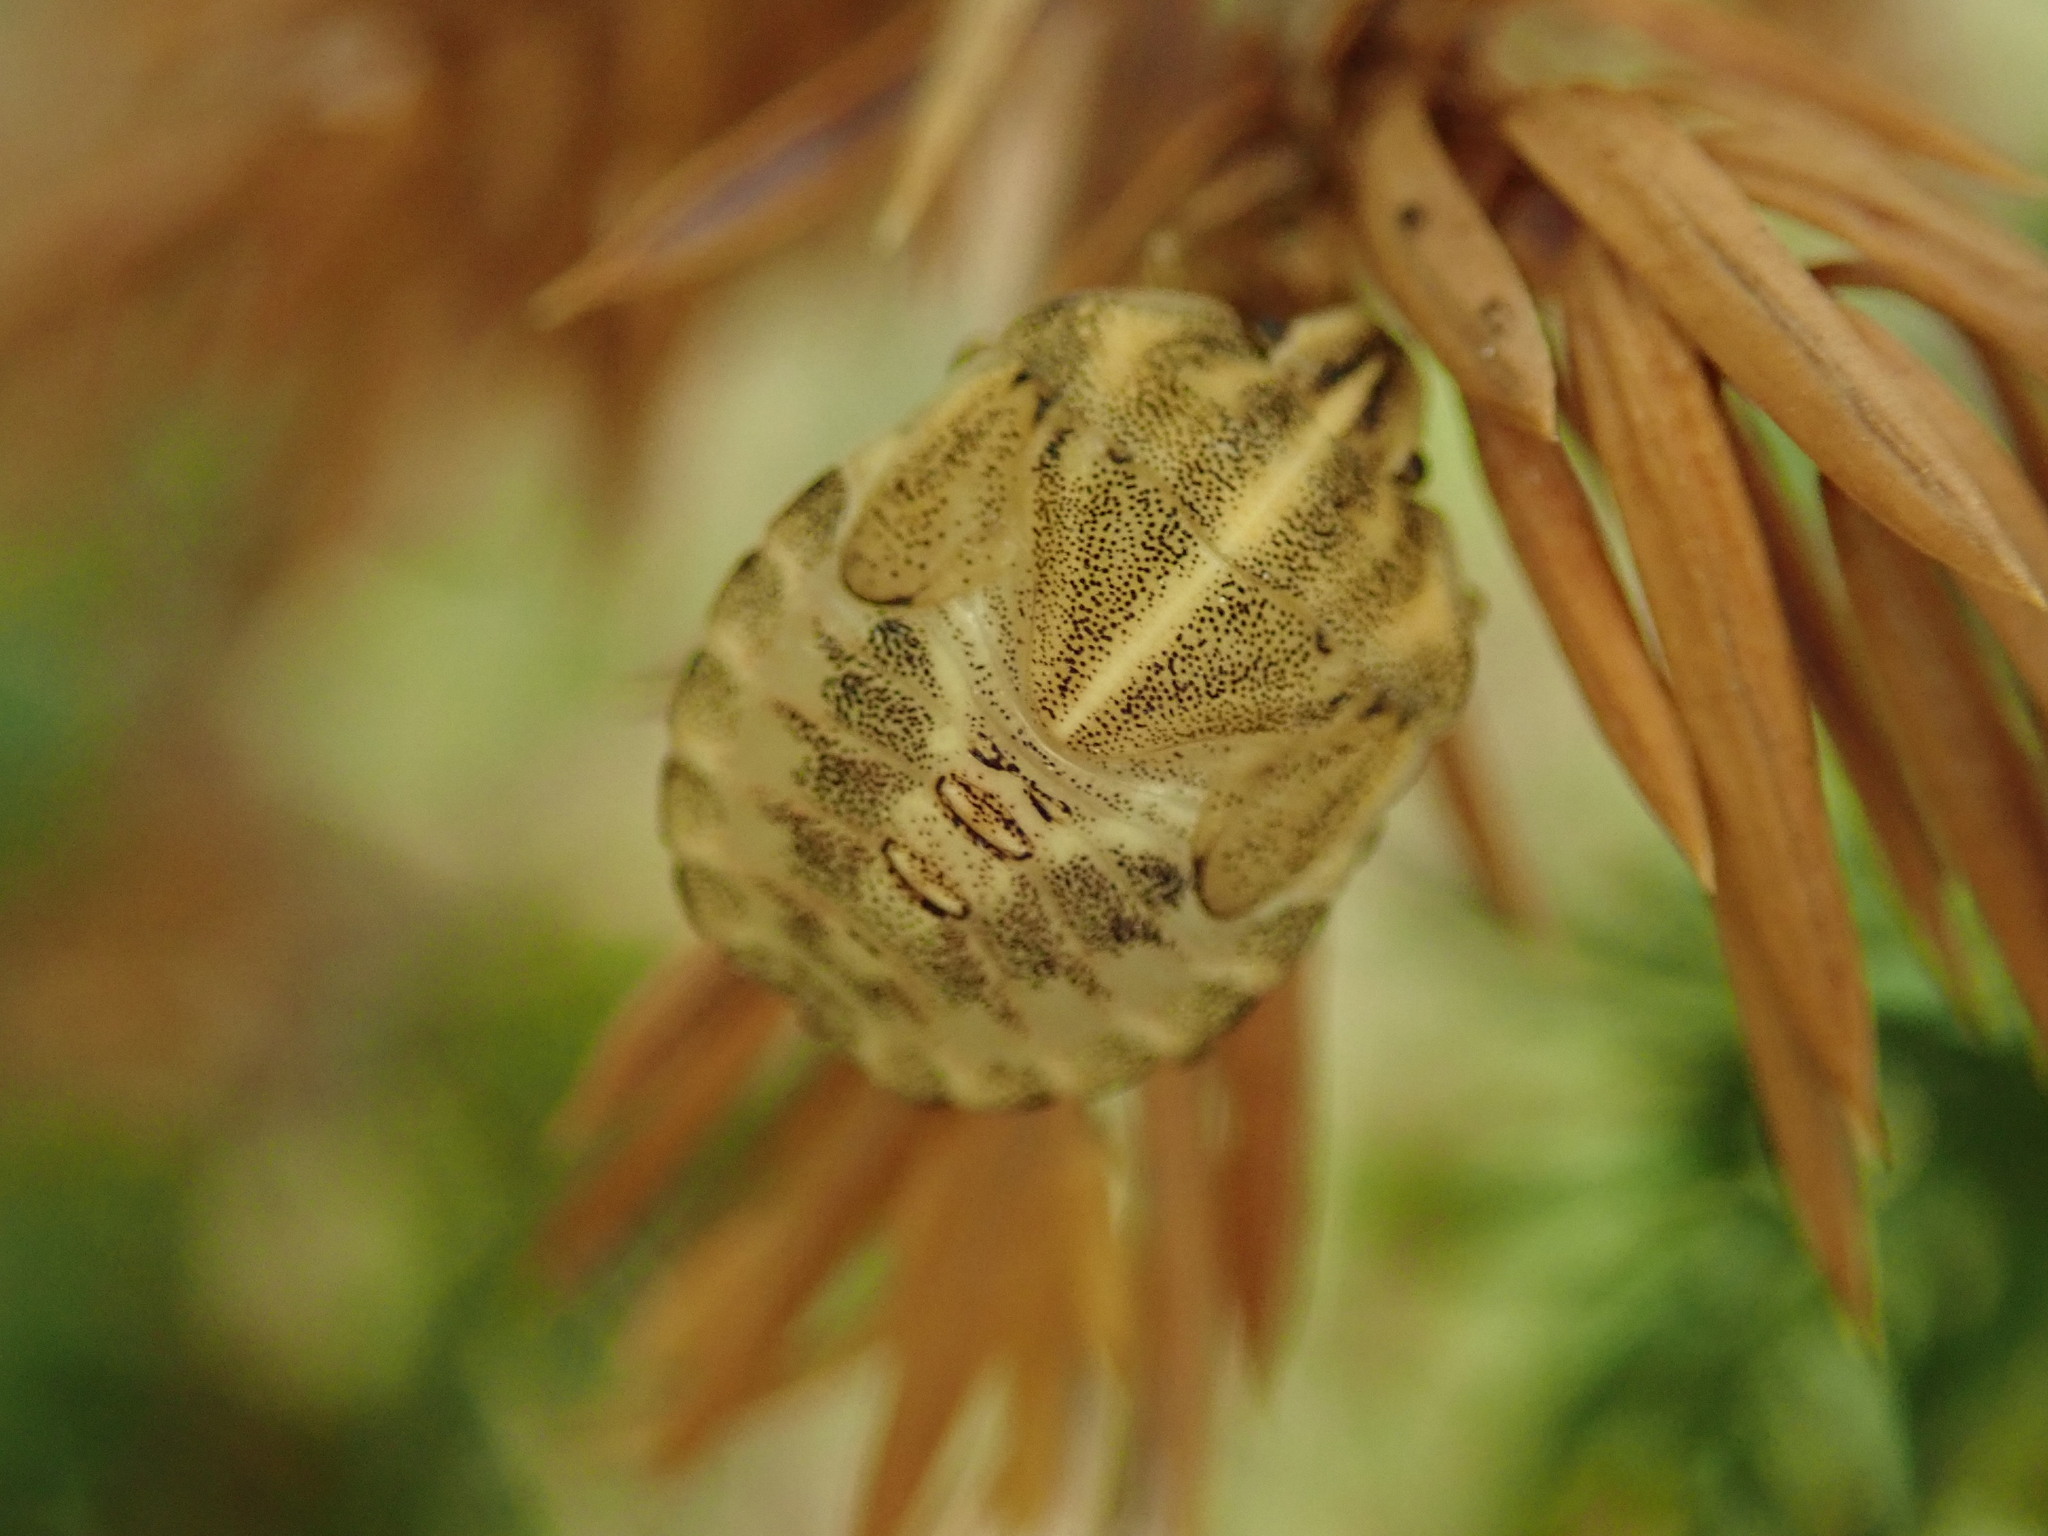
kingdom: Animalia
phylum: Arthropoda
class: Insecta
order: Hemiptera
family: Pentatomidae
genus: Graphosoma
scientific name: Graphosoma italicum
